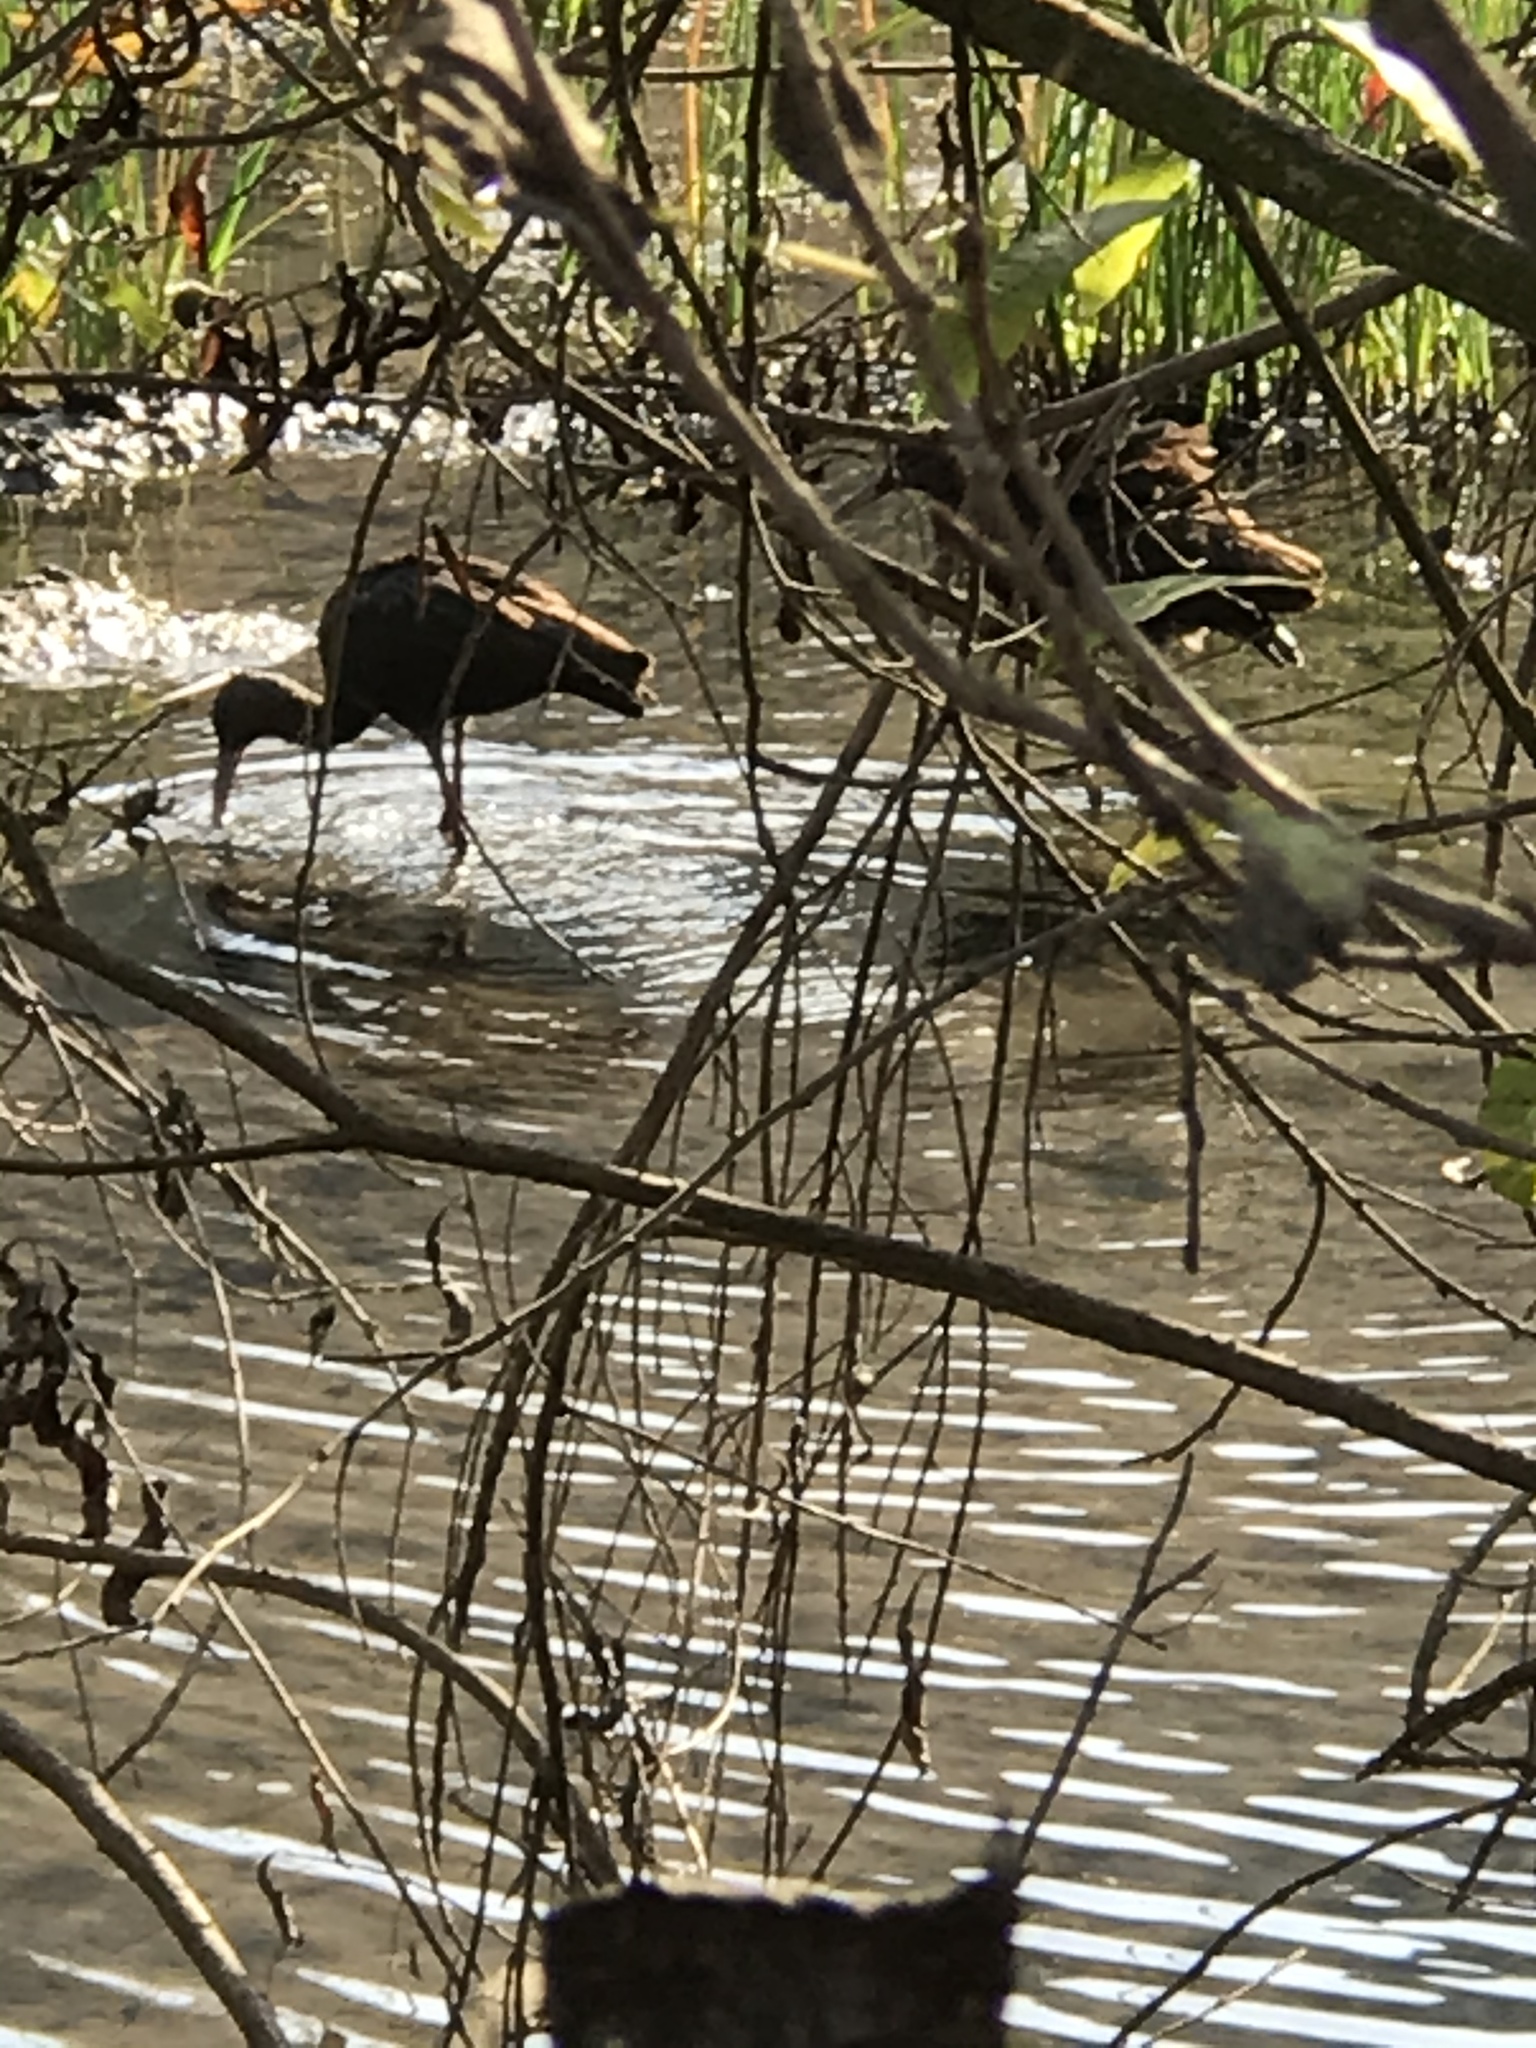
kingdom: Animalia
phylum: Chordata
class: Aves
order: Pelecaniformes
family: Threskiornithidae
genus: Plegadis
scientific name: Plegadis chihi
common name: White-faced ibis
